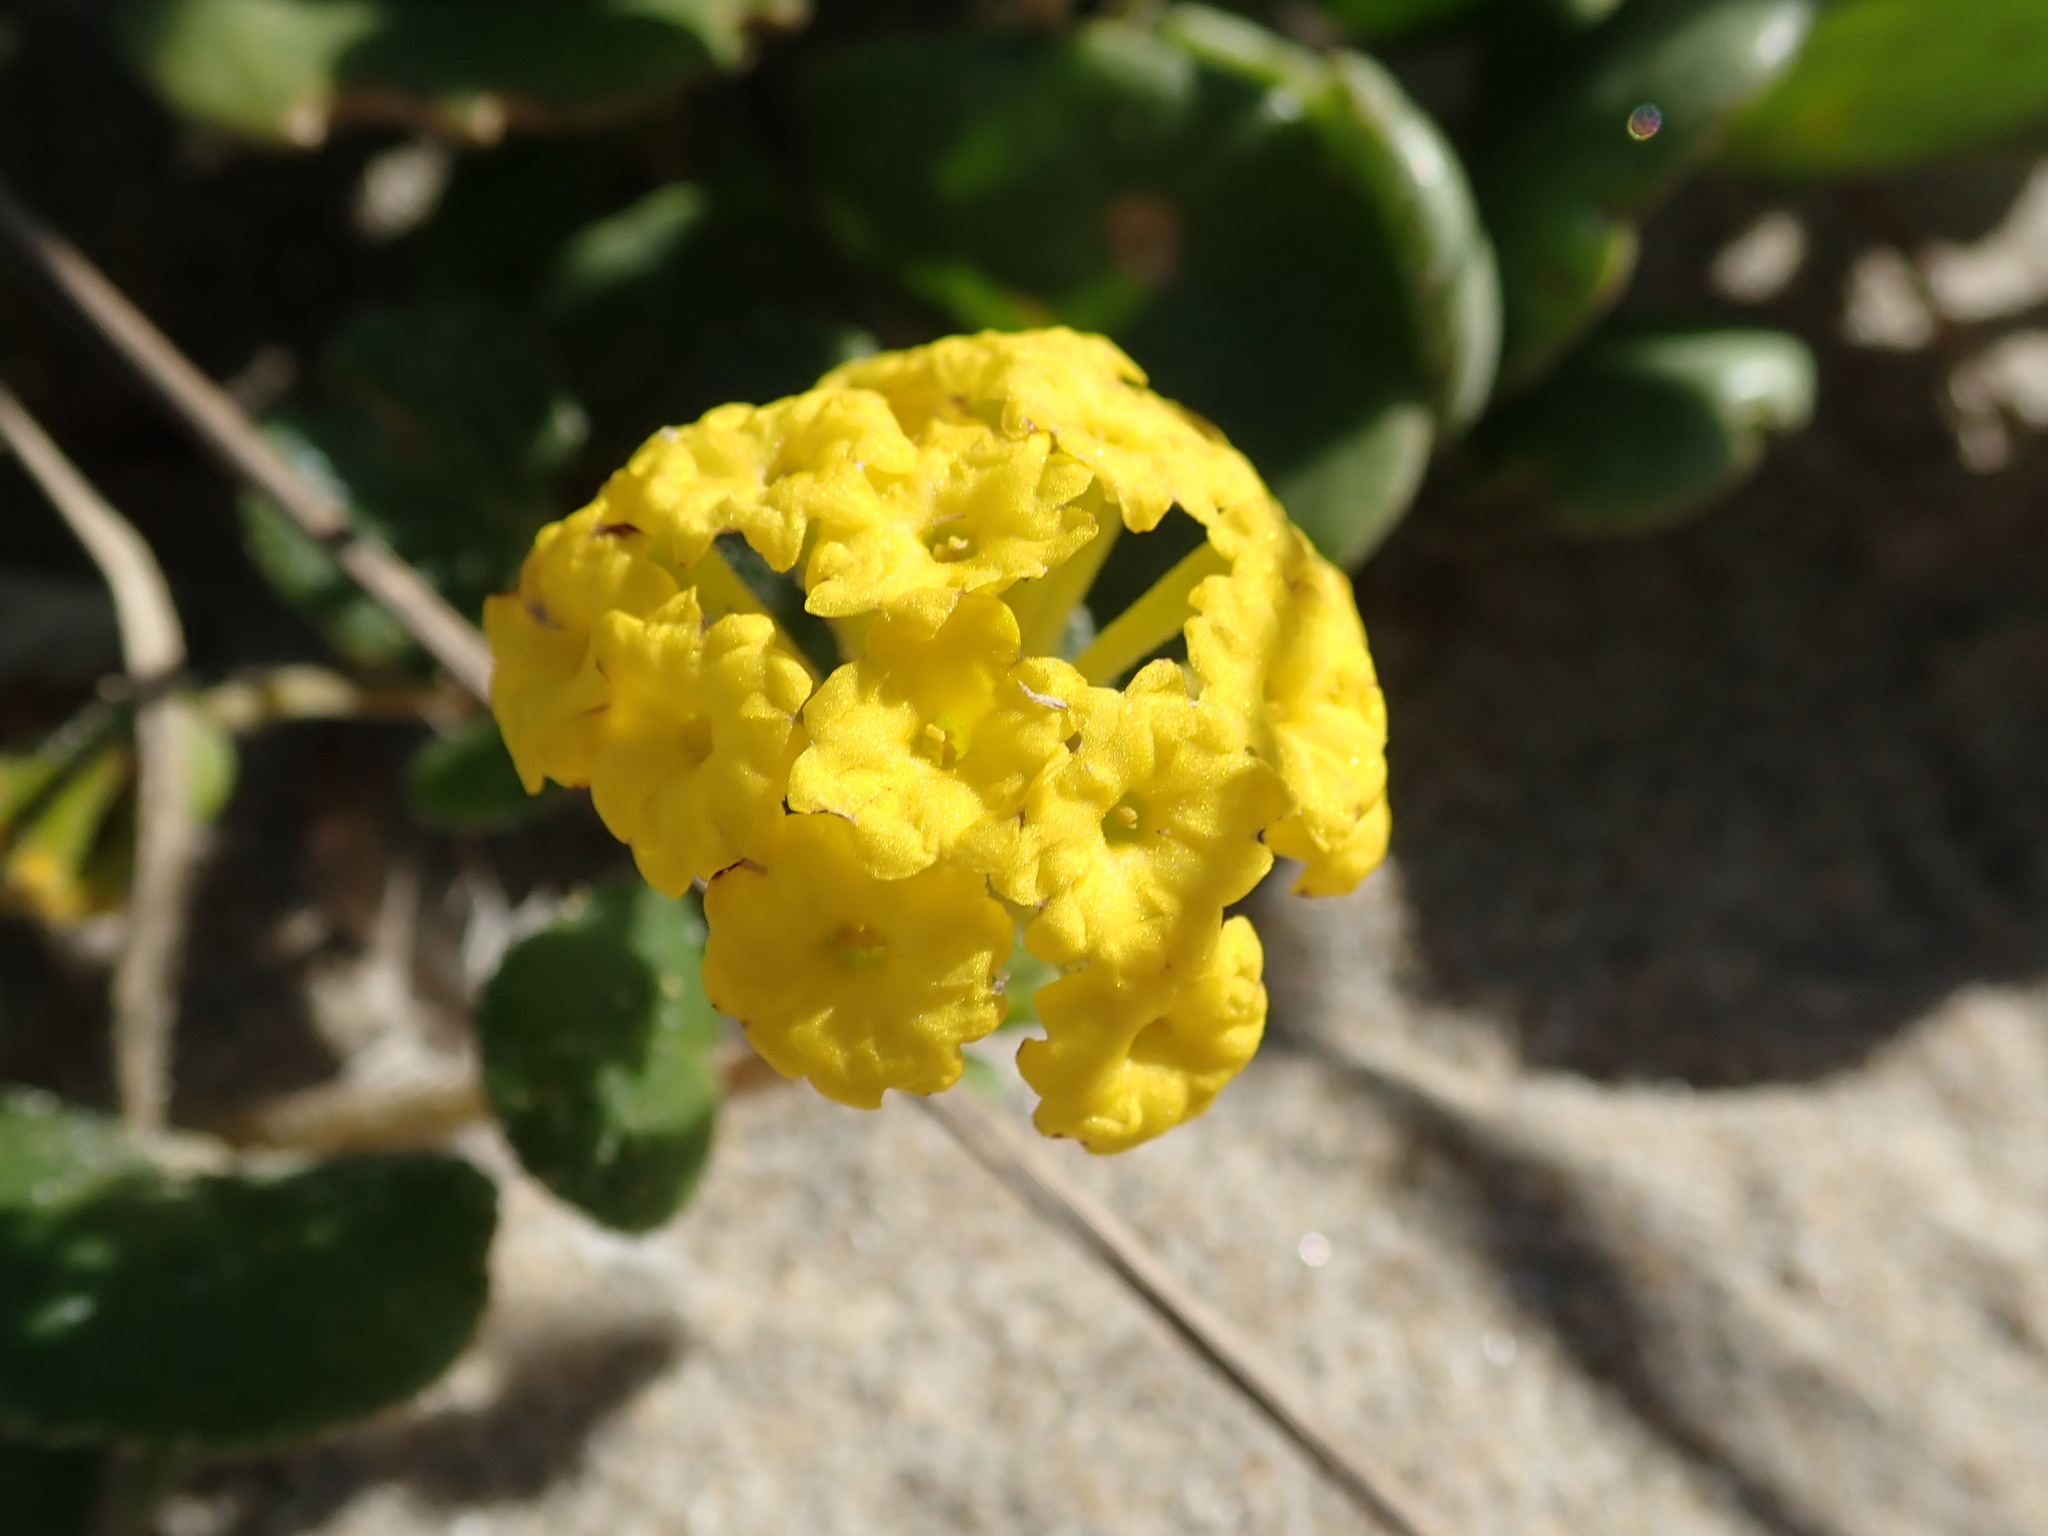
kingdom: Plantae
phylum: Tracheophyta
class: Magnoliopsida
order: Caryophyllales
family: Nyctaginaceae
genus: Abronia
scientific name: Abronia latifolia
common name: Yellow sand-verbena
